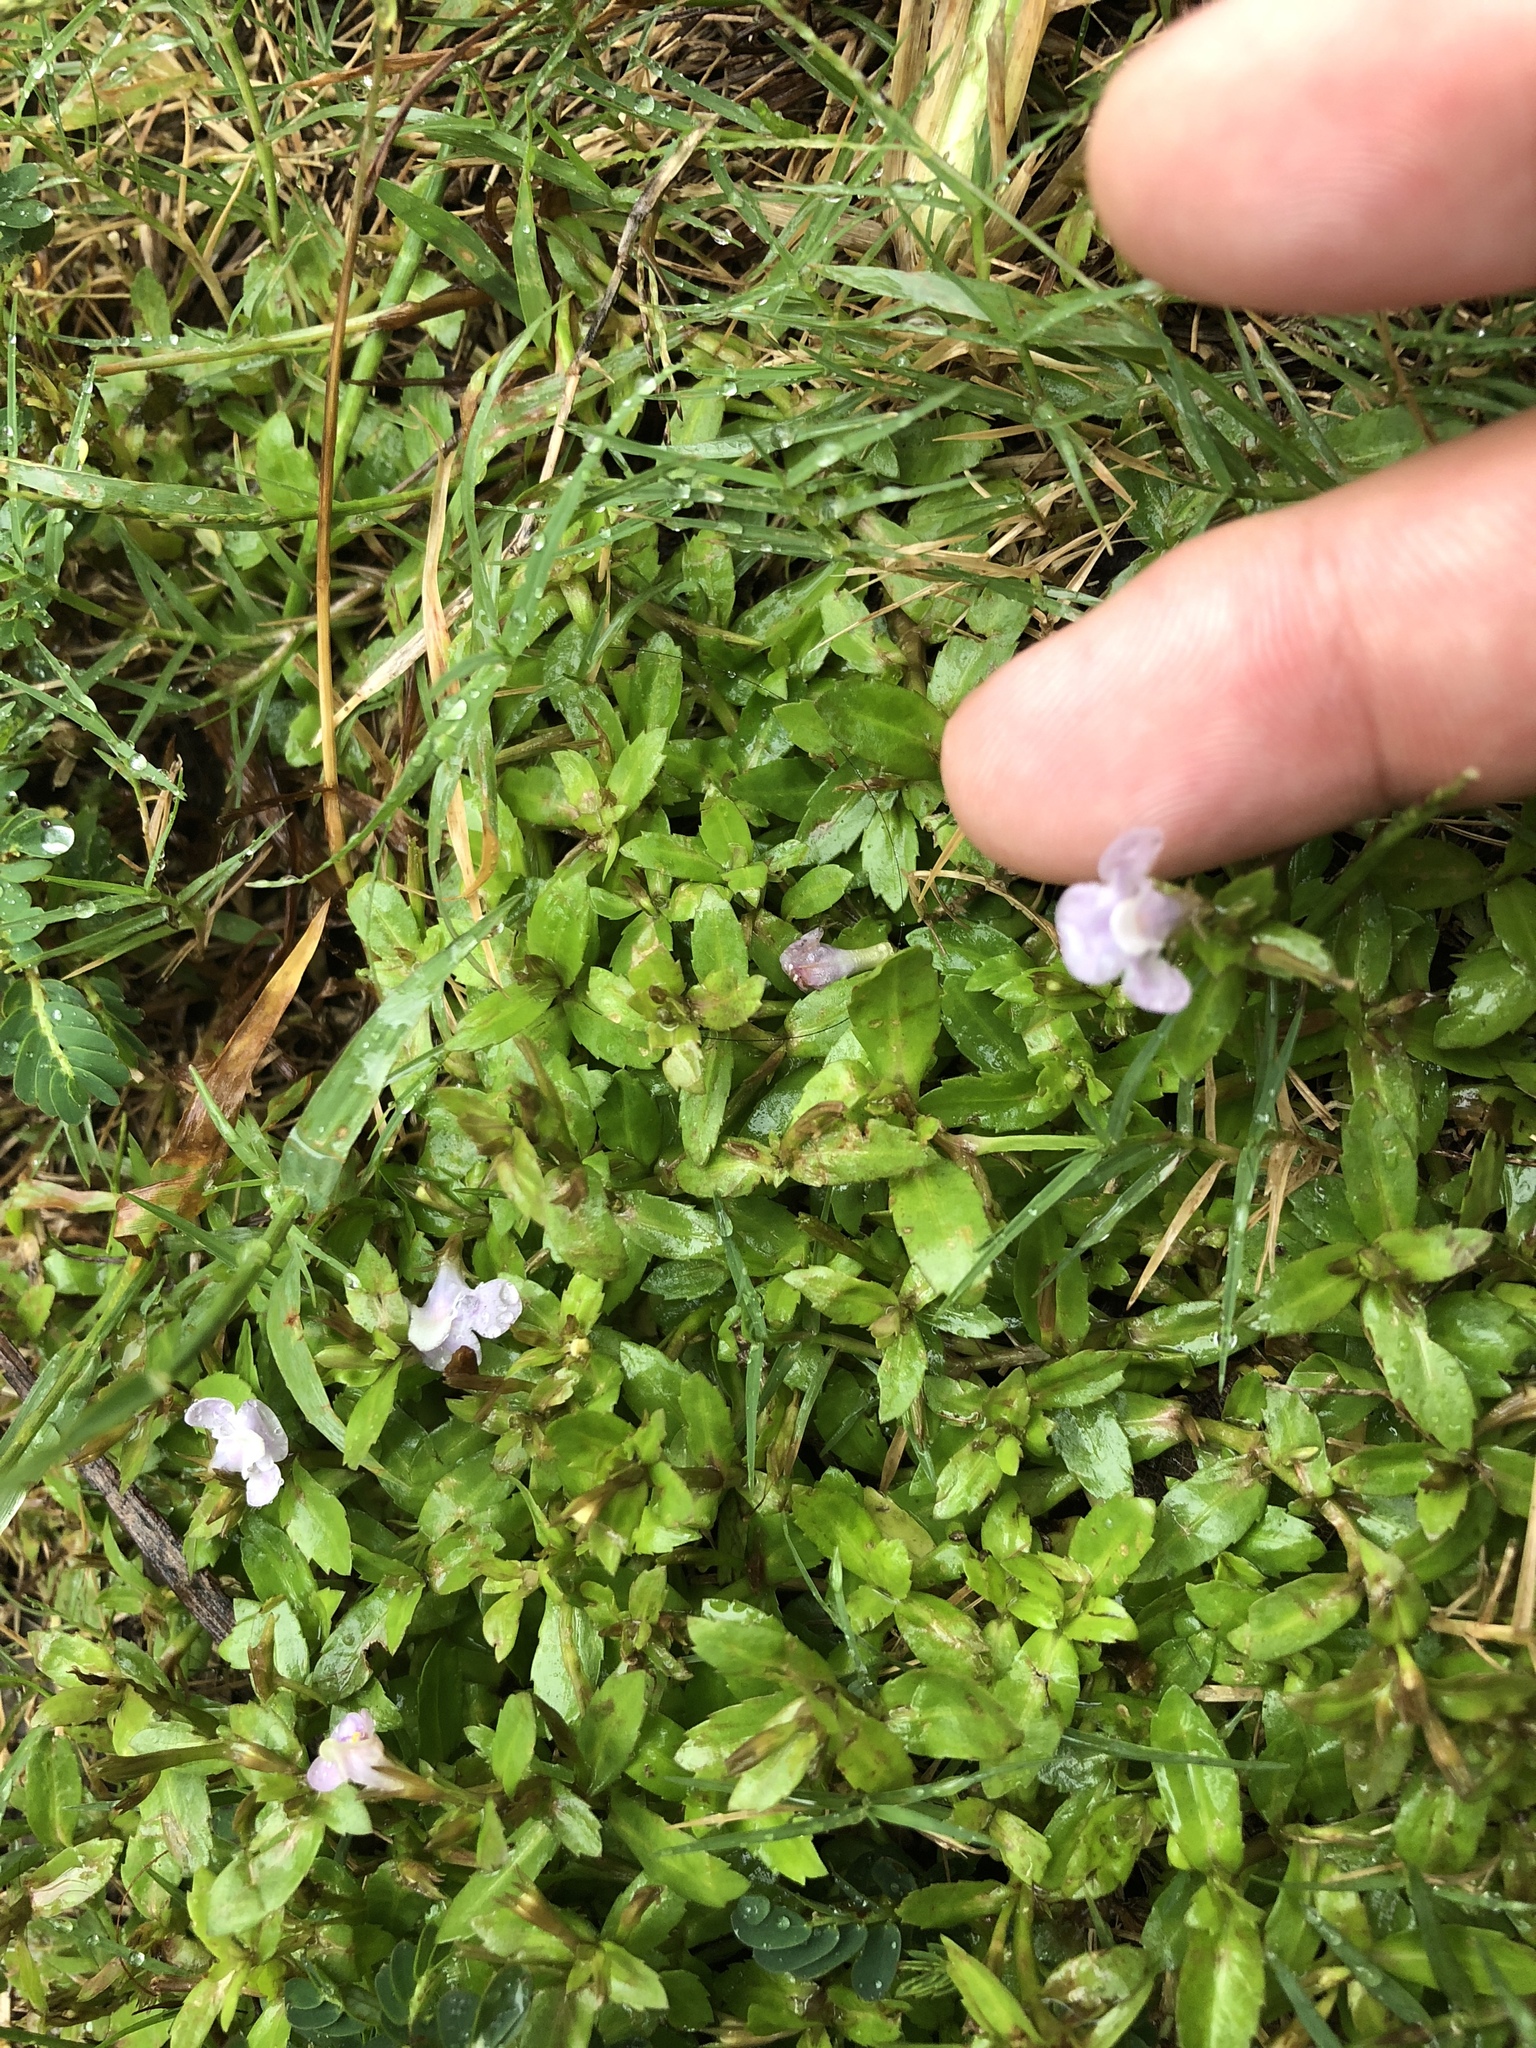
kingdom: Plantae
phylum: Tracheophyta
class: Magnoliopsida
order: Lamiales
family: Linderniaceae
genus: Bonnaya
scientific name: Bonnaya antipoda
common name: Sparrow false pimpernel
